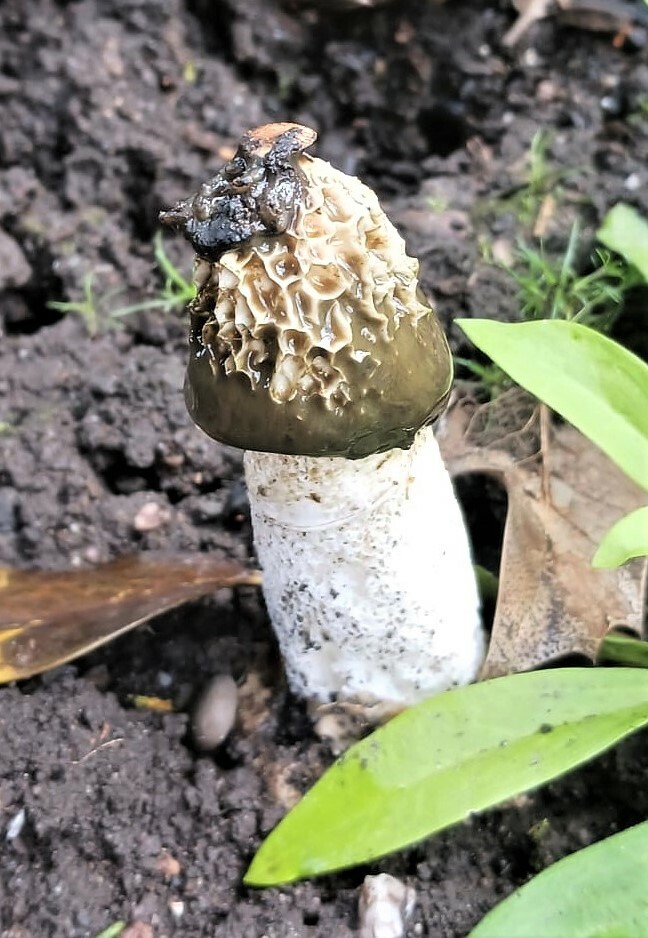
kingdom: Fungi
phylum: Basidiomycota
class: Agaricomycetes
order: Phallales
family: Phallaceae
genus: Phallus
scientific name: Phallus impudicus
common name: Common stinkhorn
